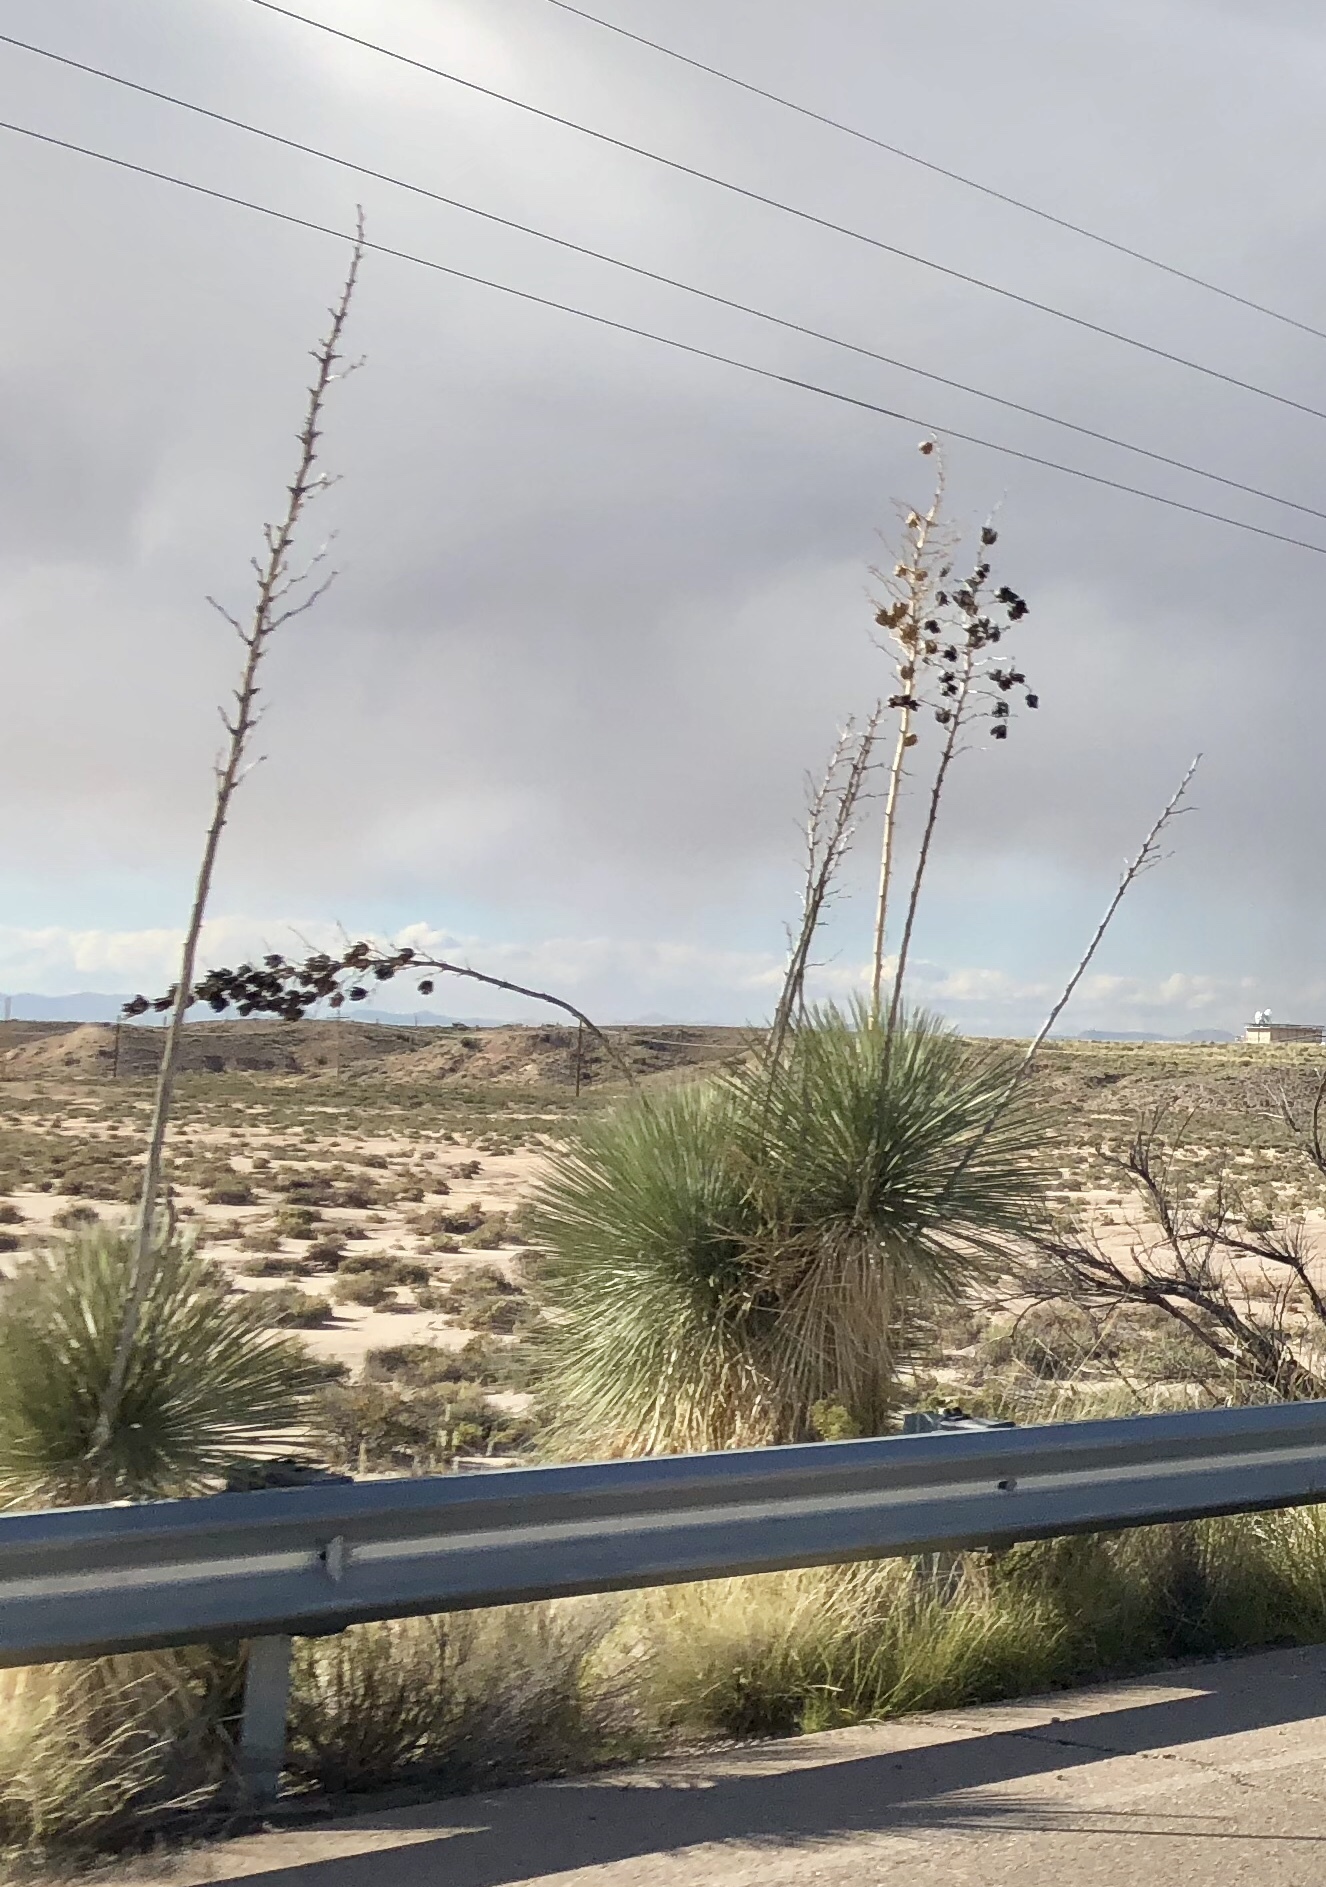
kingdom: Plantae
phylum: Tracheophyta
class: Liliopsida
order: Asparagales
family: Asparagaceae
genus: Yucca
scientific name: Yucca elata
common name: Palmella
